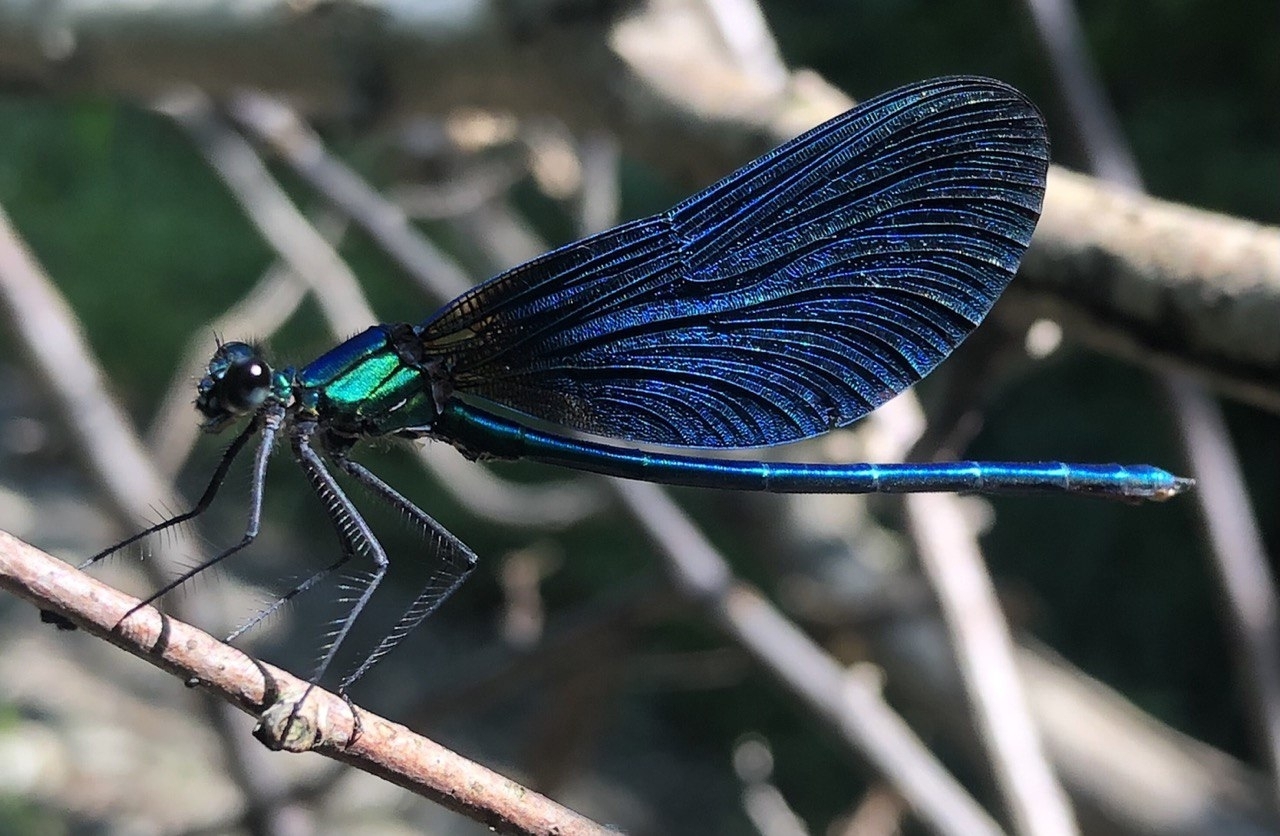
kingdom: Animalia
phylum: Arthropoda
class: Insecta
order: Odonata
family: Calopterygidae
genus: Calopteryx
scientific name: Calopteryx virgo
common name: Beautiful demoiselle
